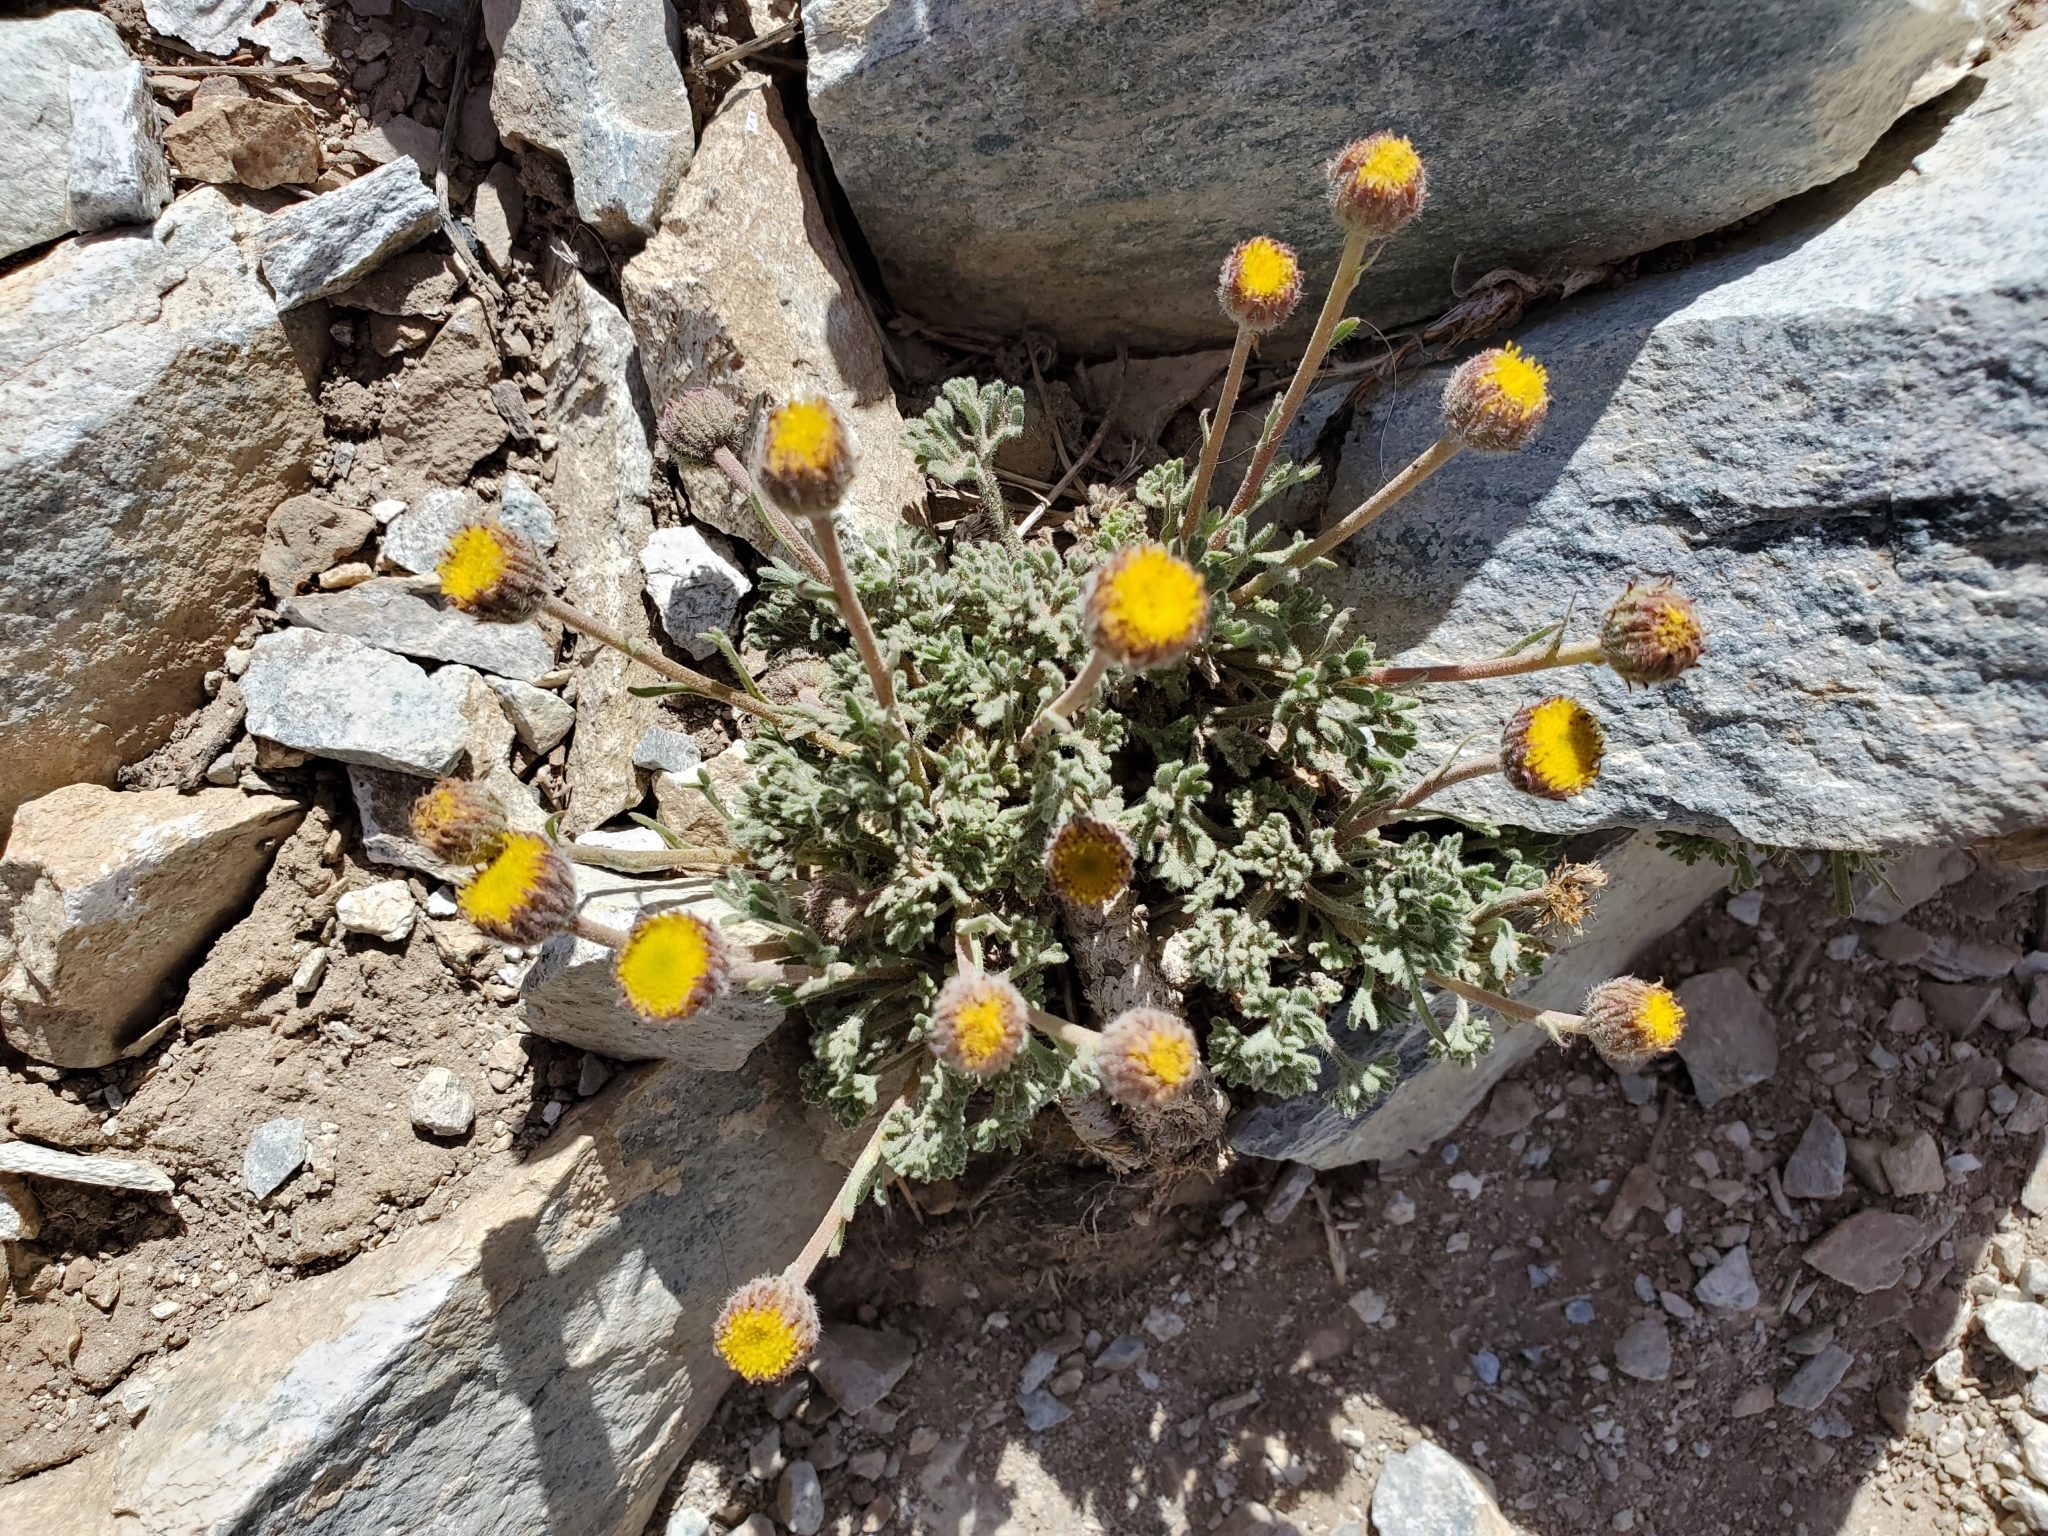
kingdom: Plantae
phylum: Tracheophyta
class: Magnoliopsida
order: Asterales
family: Asteraceae
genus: Erigeron
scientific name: Erigeron compositus
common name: Dwarf mountain fleabane
